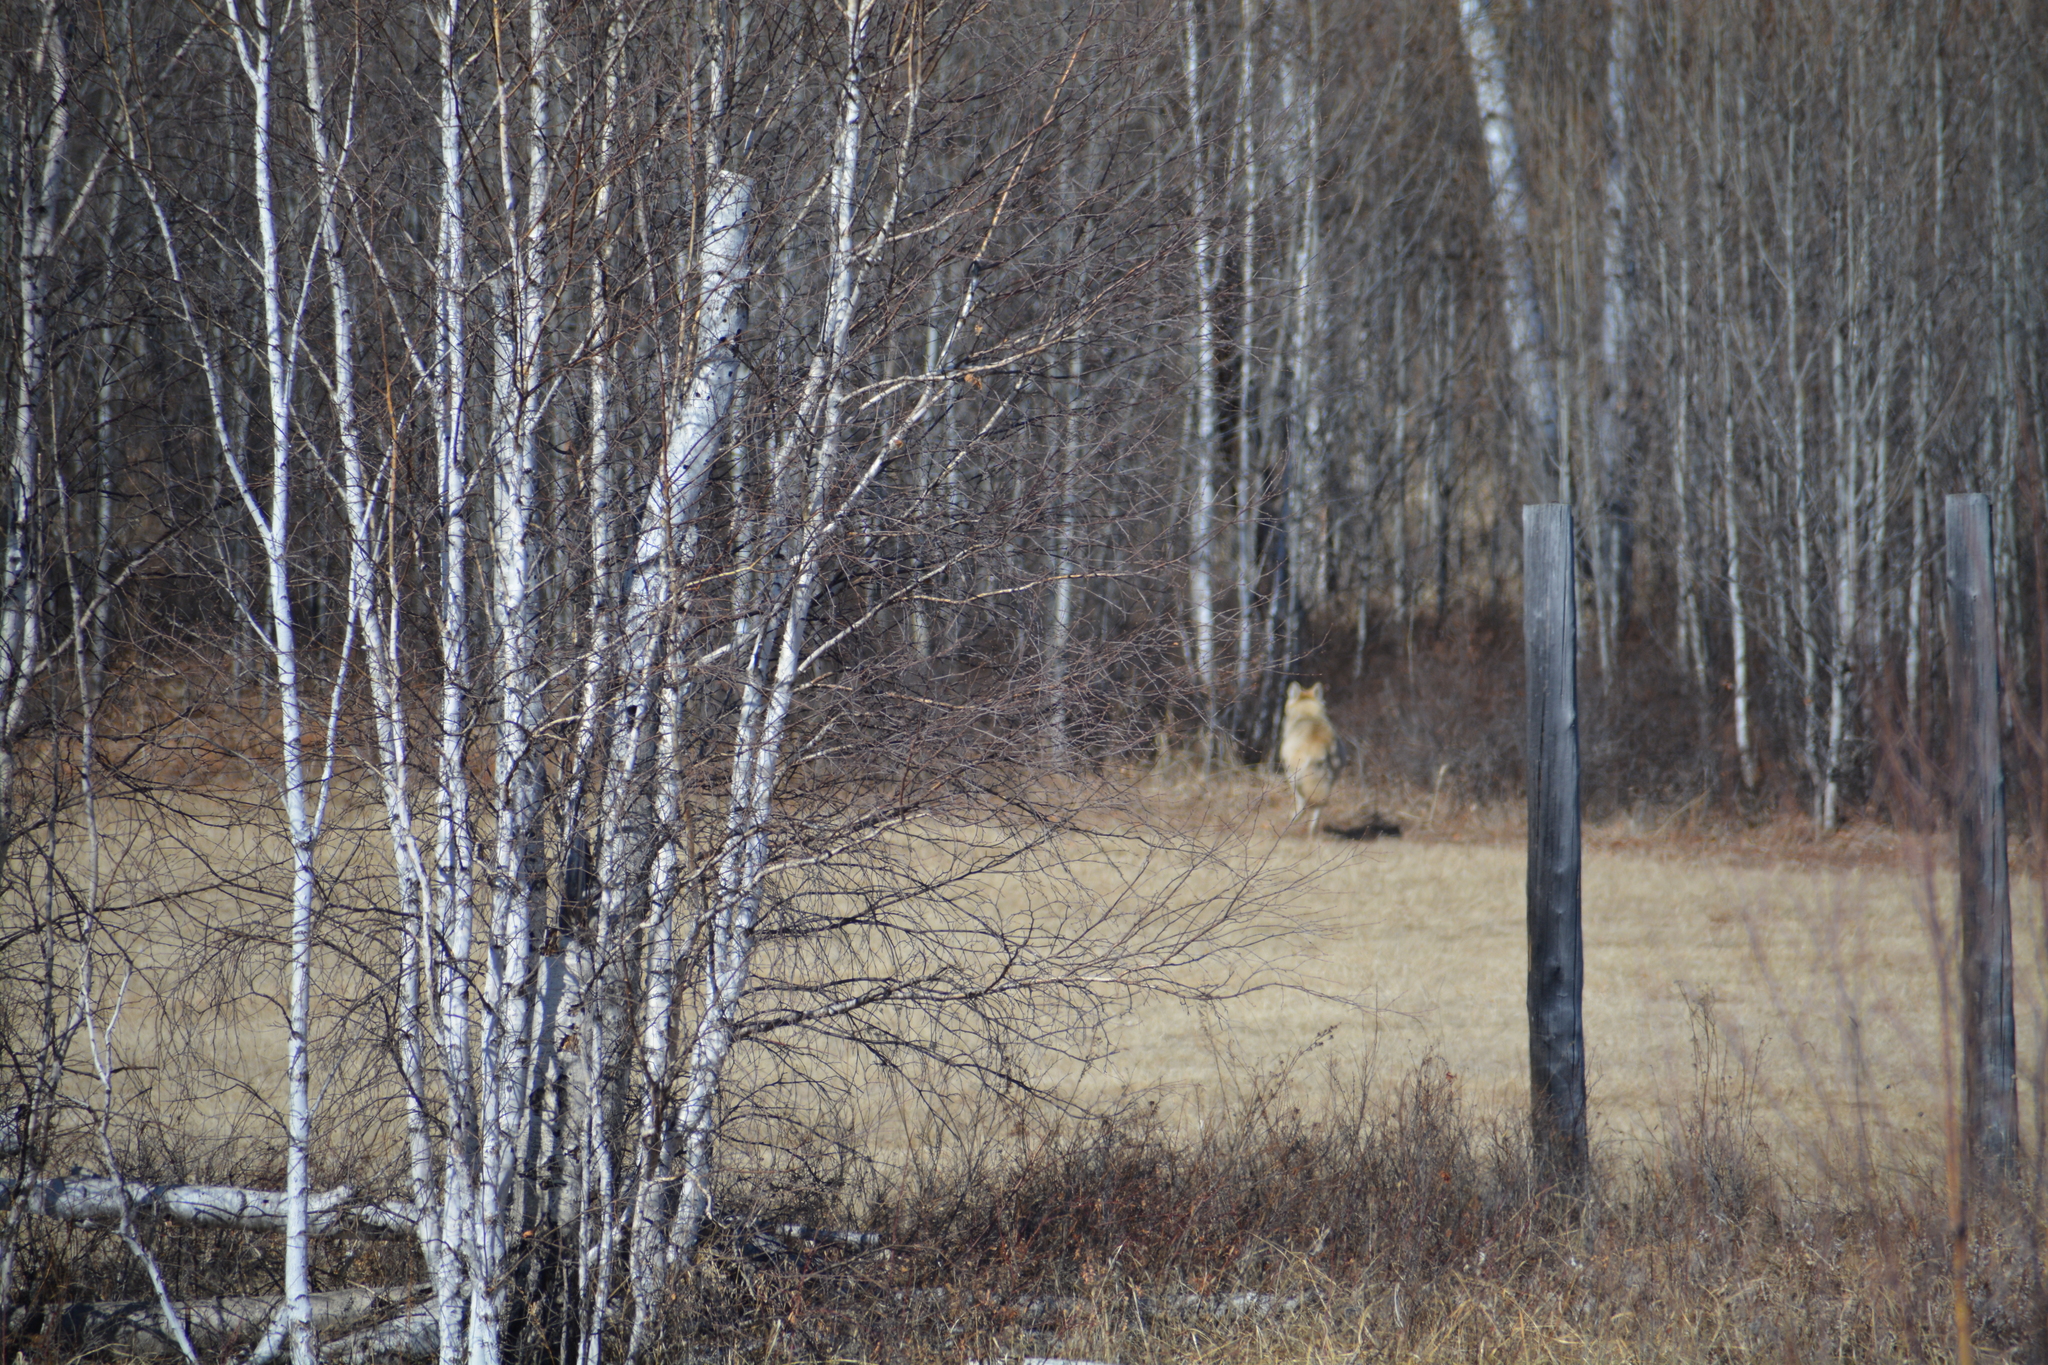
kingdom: Animalia
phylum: Chordata
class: Mammalia
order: Carnivora
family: Canidae
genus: Canis
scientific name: Canis lupus
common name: Gray wolf
